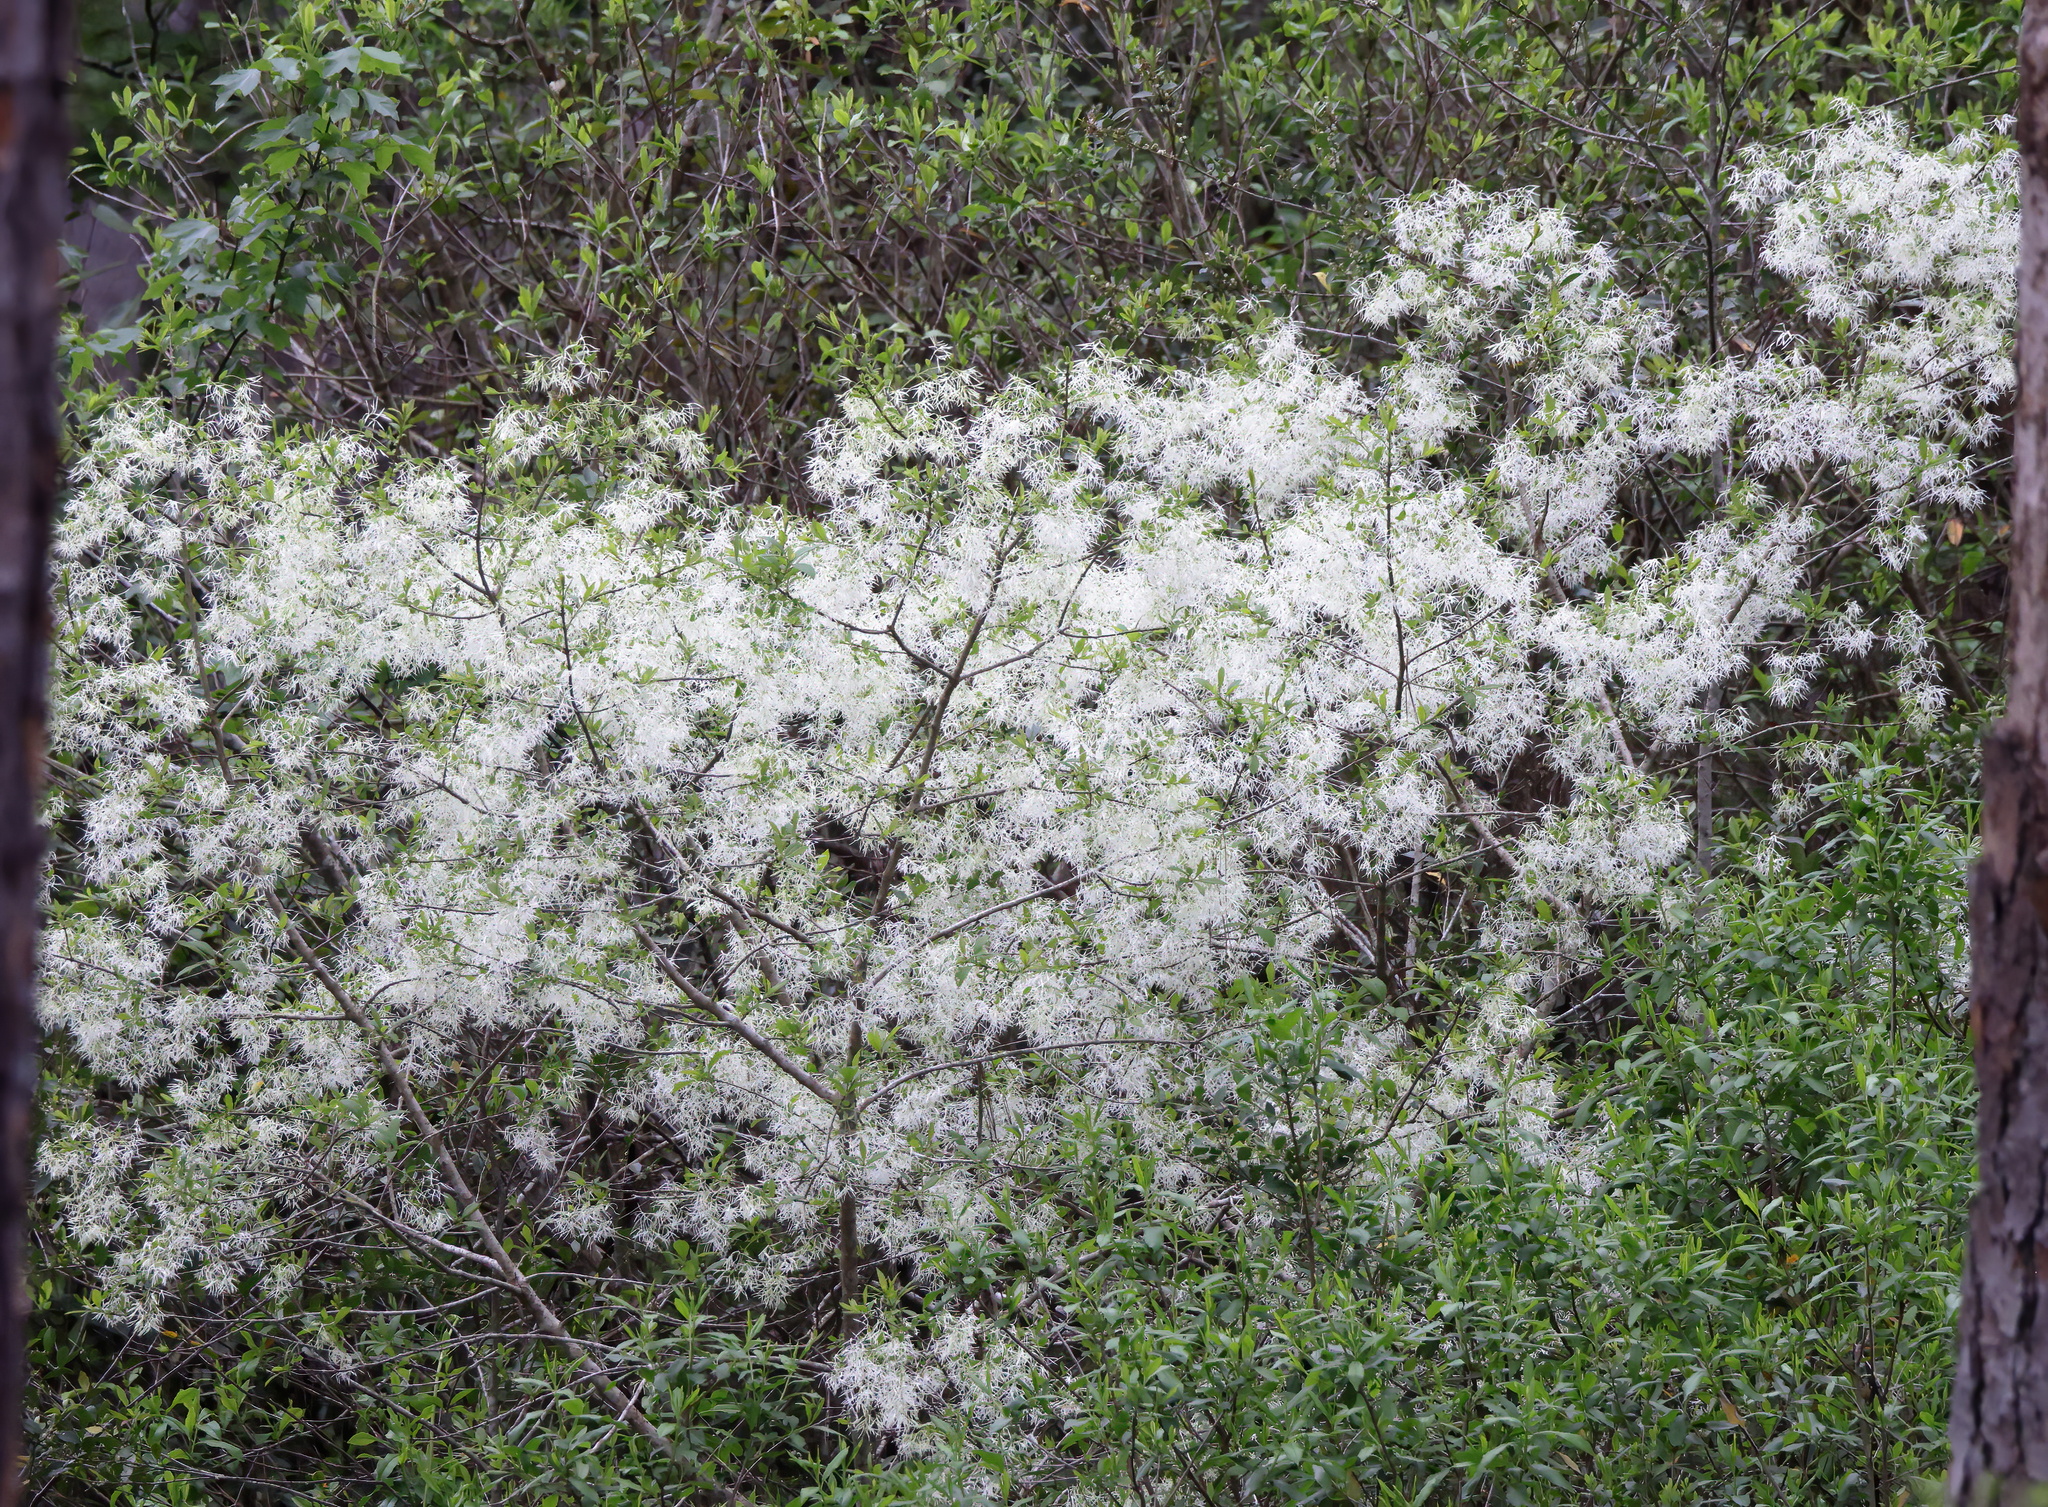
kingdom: Plantae
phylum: Tracheophyta
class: Magnoliopsida
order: Lamiales
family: Oleaceae
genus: Chionanthus
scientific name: Chionanthus virginicus
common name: American fringetree
